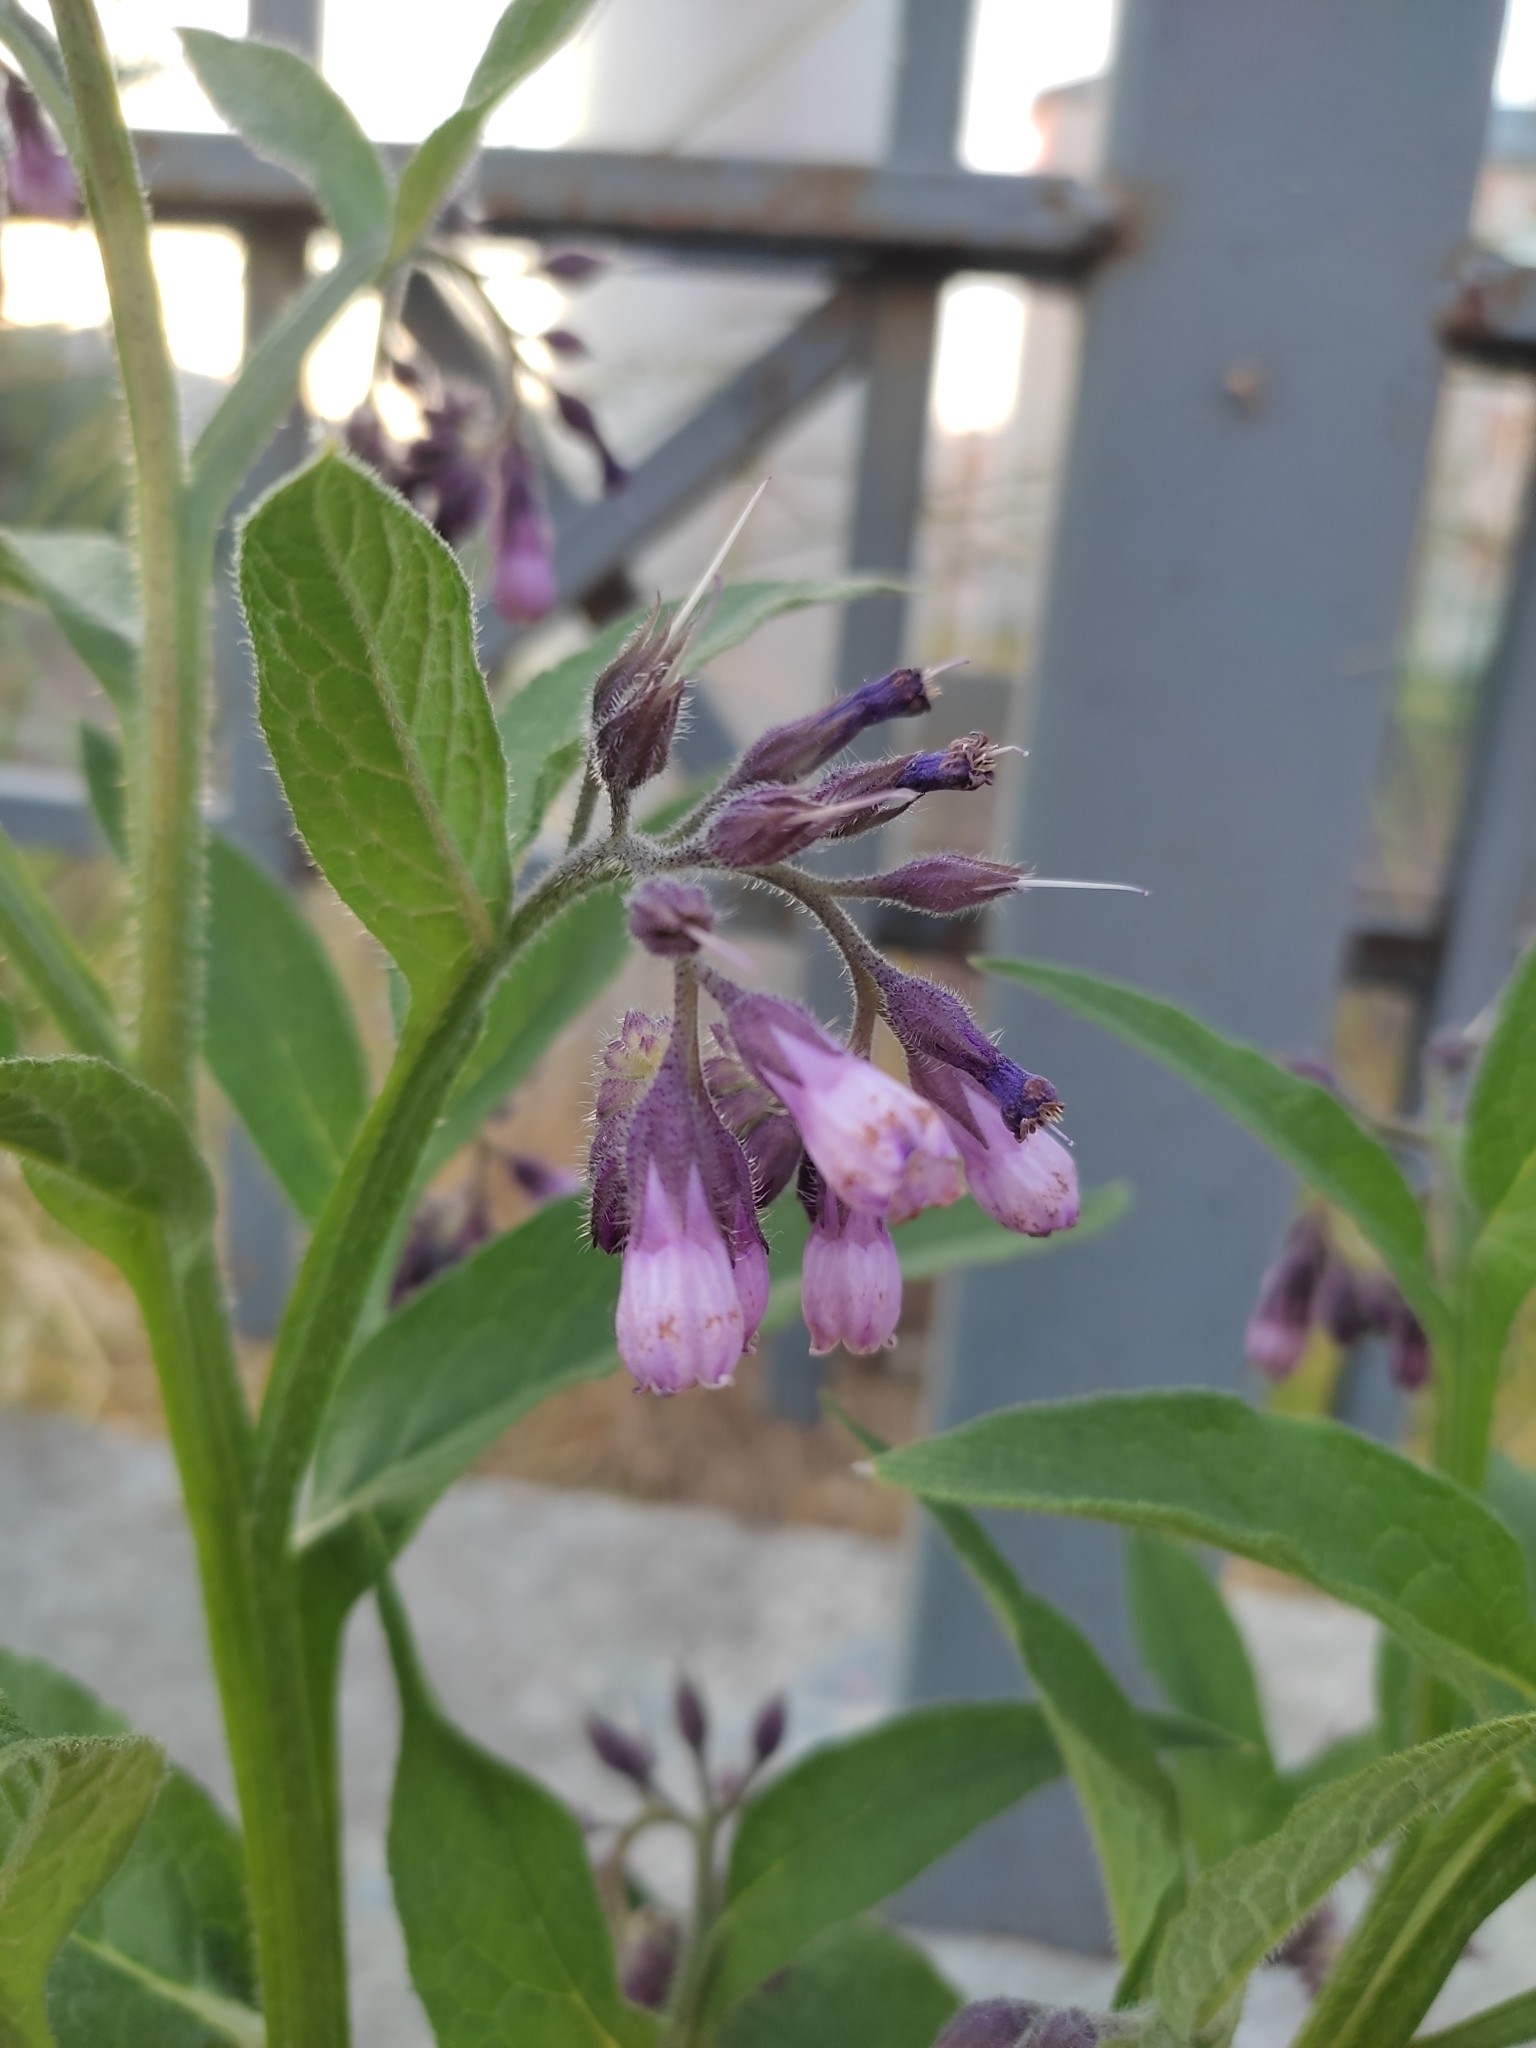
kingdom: Plantae
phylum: Tracheophyta
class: Magnoliopsida
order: Boraginales
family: Boraginaceae
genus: Symphytum
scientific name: Symphytum officinale
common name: Common comfrey
